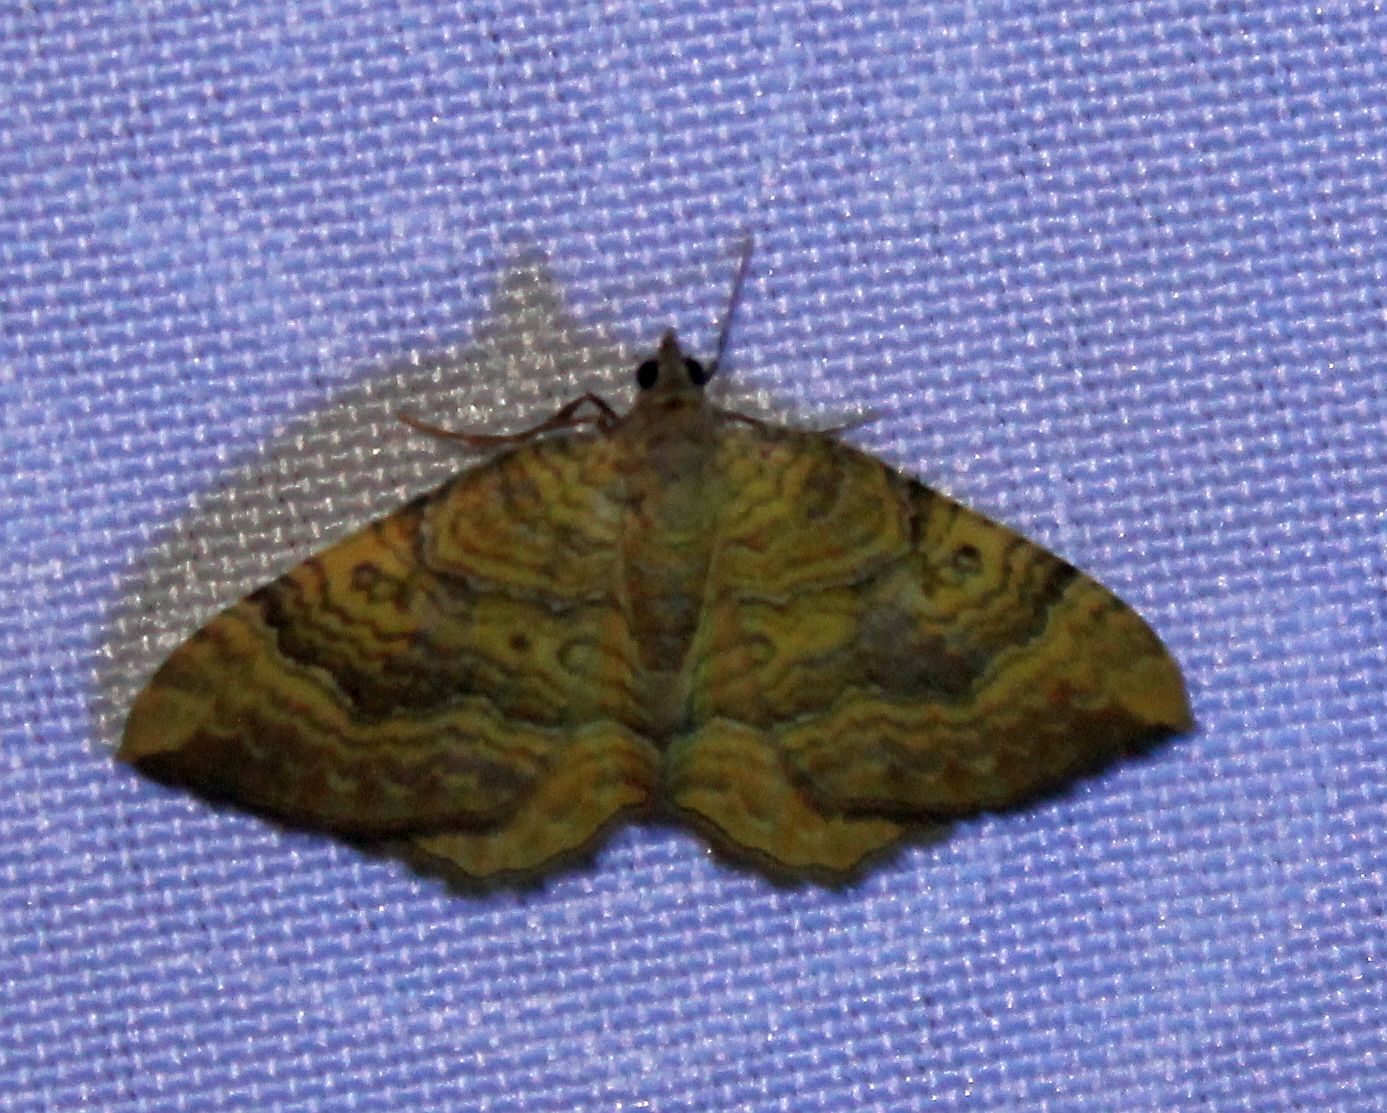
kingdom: Animalia
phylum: Arthropoda
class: Insecta
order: Lepidoptera
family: Geometridae
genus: Camptogramma
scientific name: Camptogramma bilineata
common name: Yellow shell
